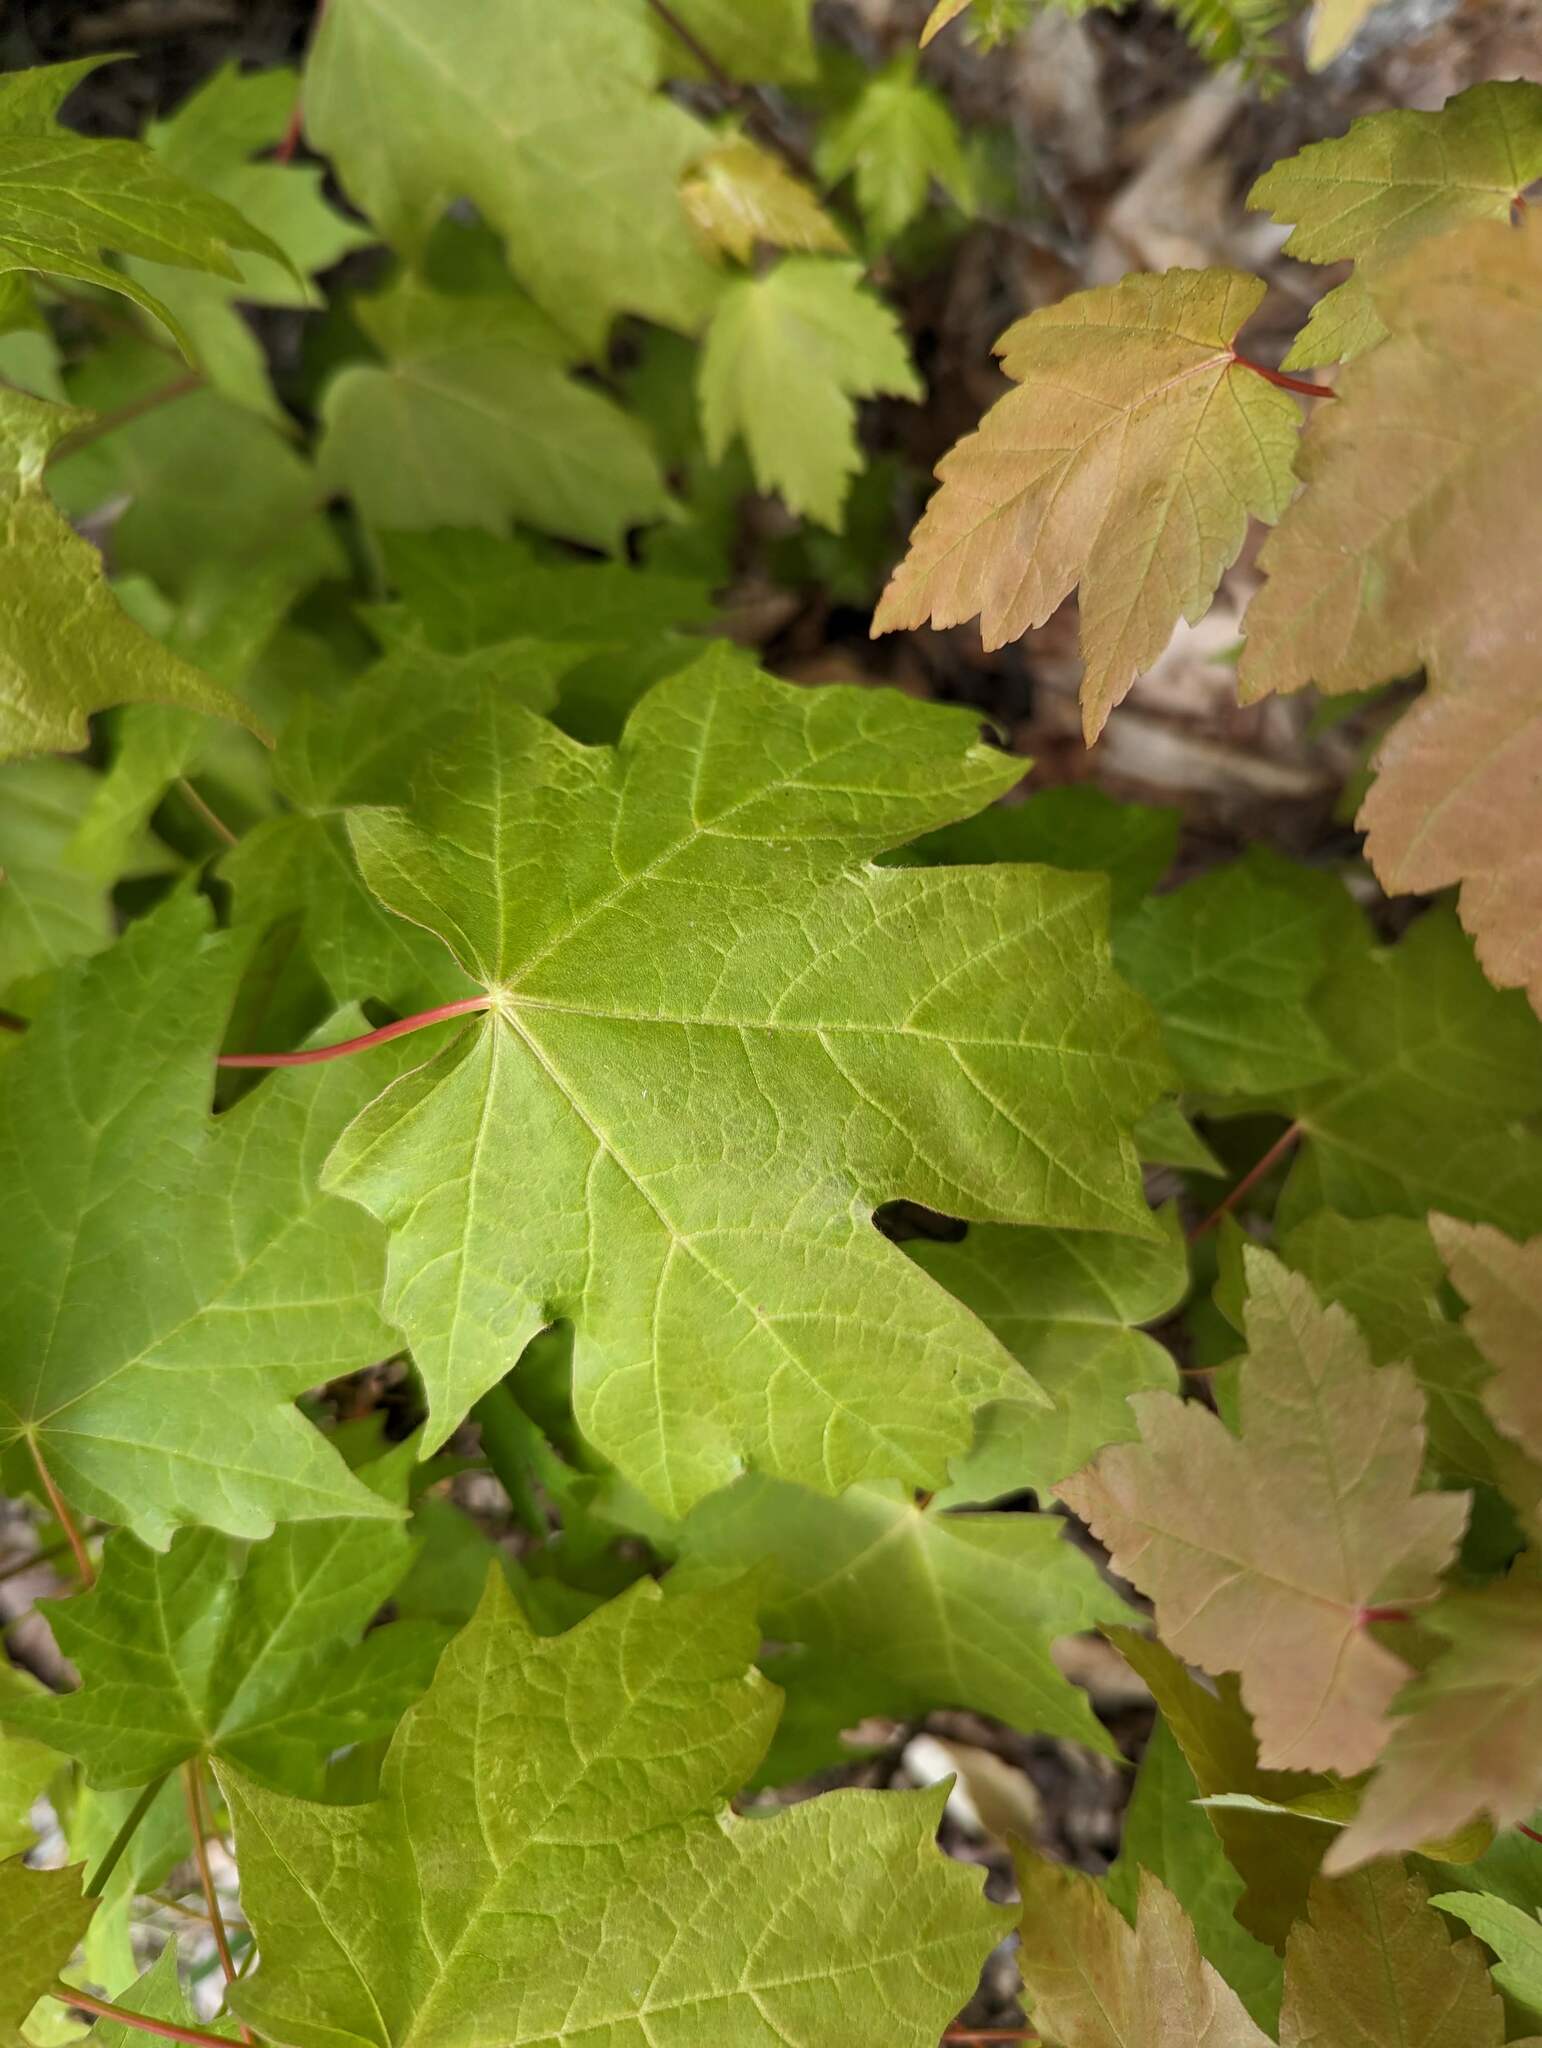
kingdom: Plantae
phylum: Tracheophyta
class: Magnoliopsida
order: Sapindales
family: Sapindaceae
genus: Acer
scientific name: Acer saccharum
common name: Sugar maple
